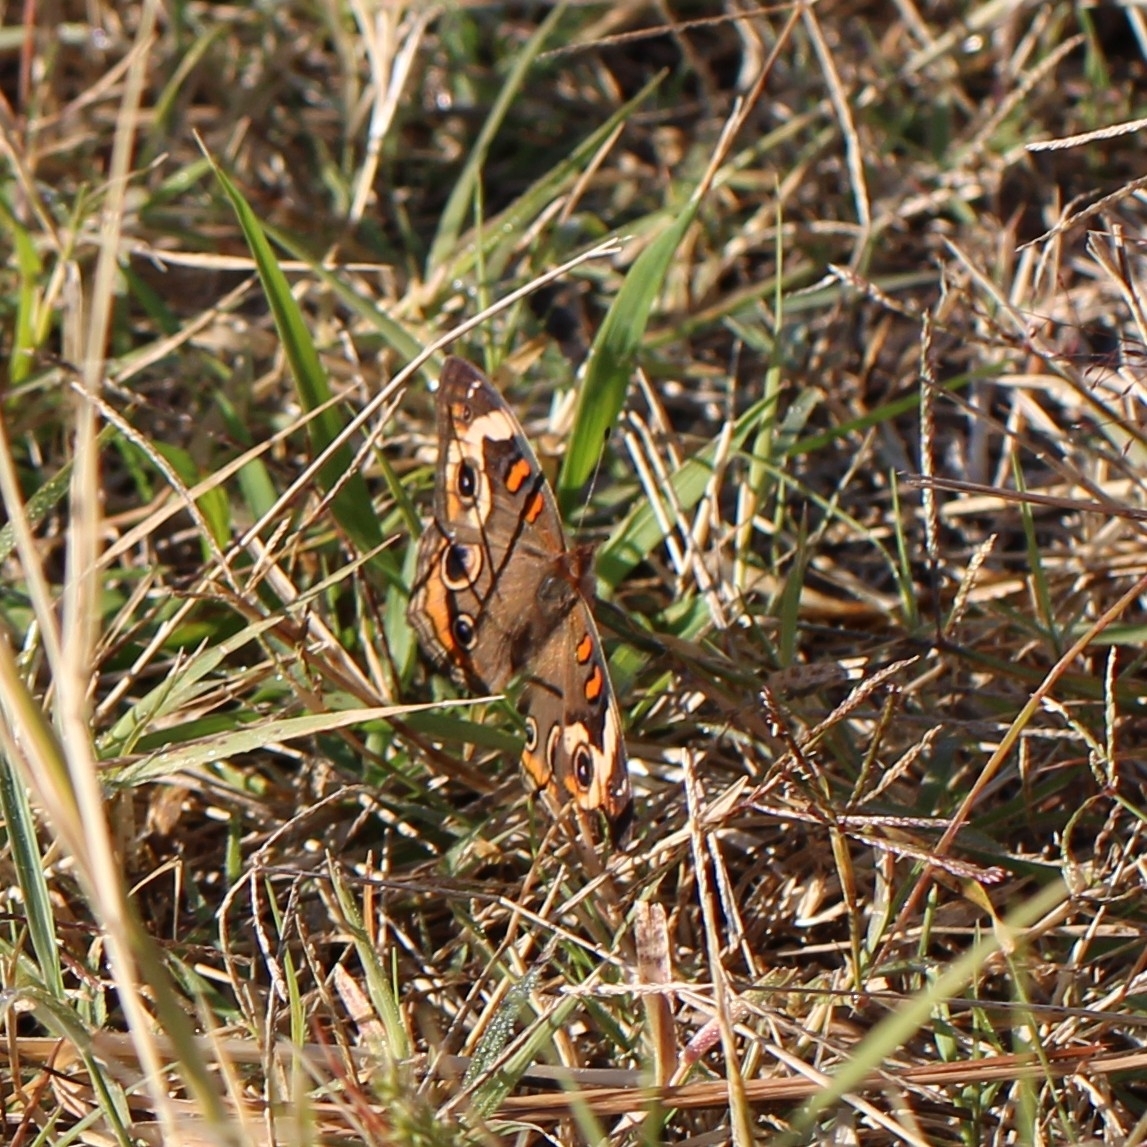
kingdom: Animalia
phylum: Arthropoda
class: Insecta
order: Lepidoptera
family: Nymphalidae
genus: Junonia
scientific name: Junonia coenia
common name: Common buckeye
